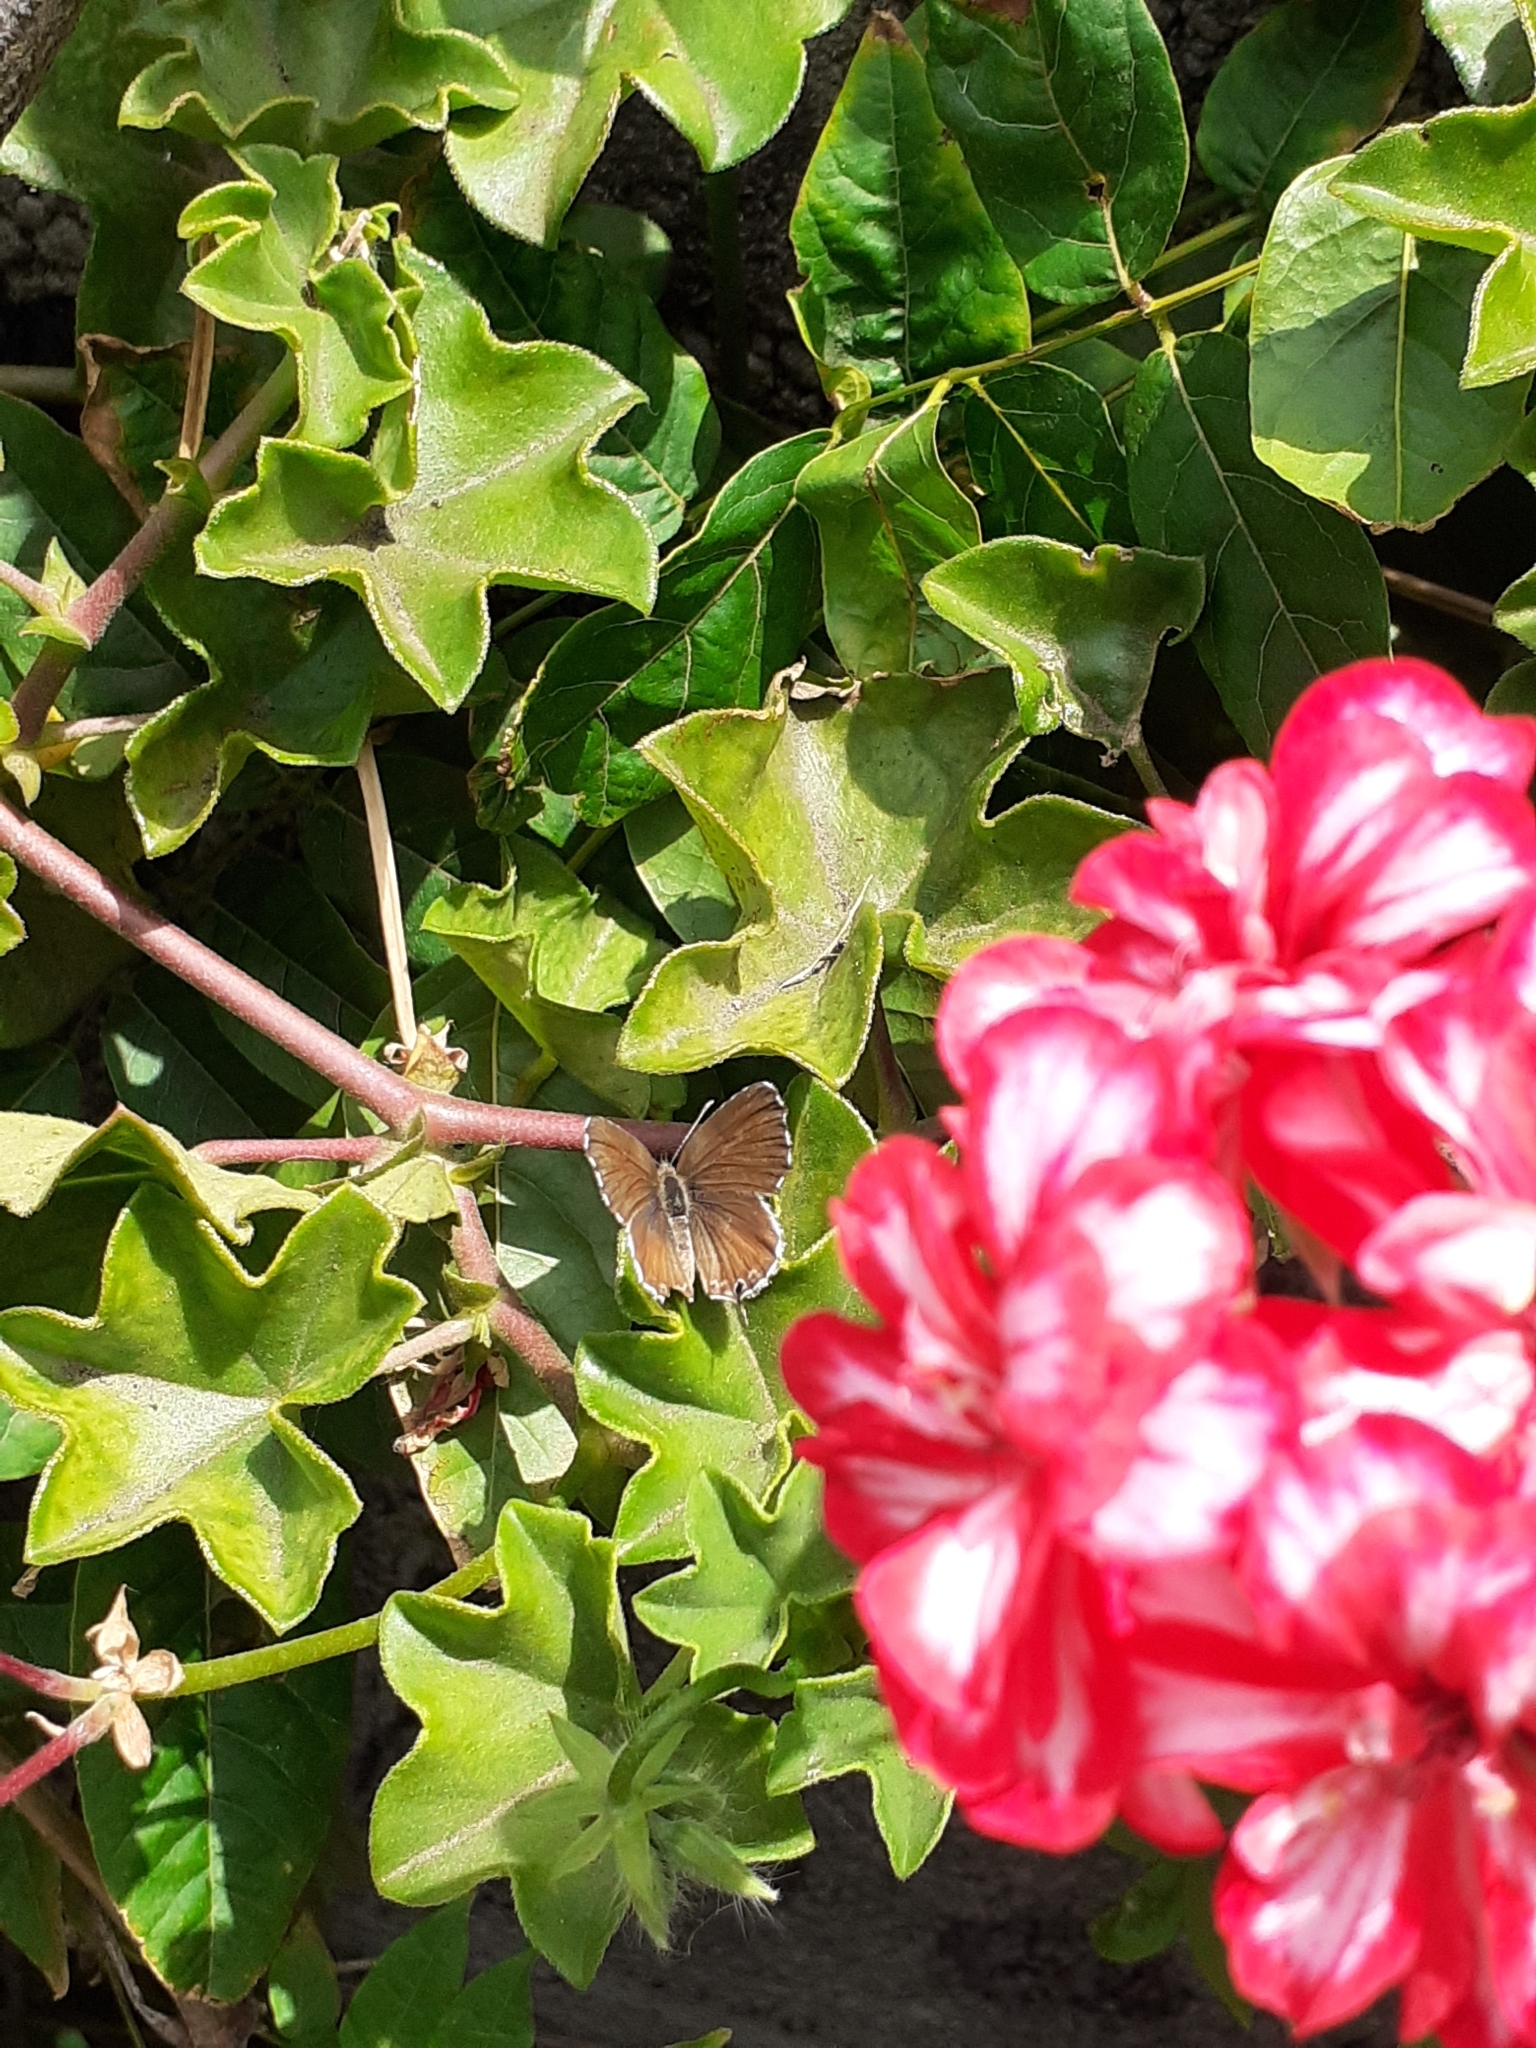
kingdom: Animalia
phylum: Arthropoda
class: Insecta
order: Lepidoptera
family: Lycaenidae
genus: Cacyreus
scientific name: Cacyreus marshalli
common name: Geranium bronze
